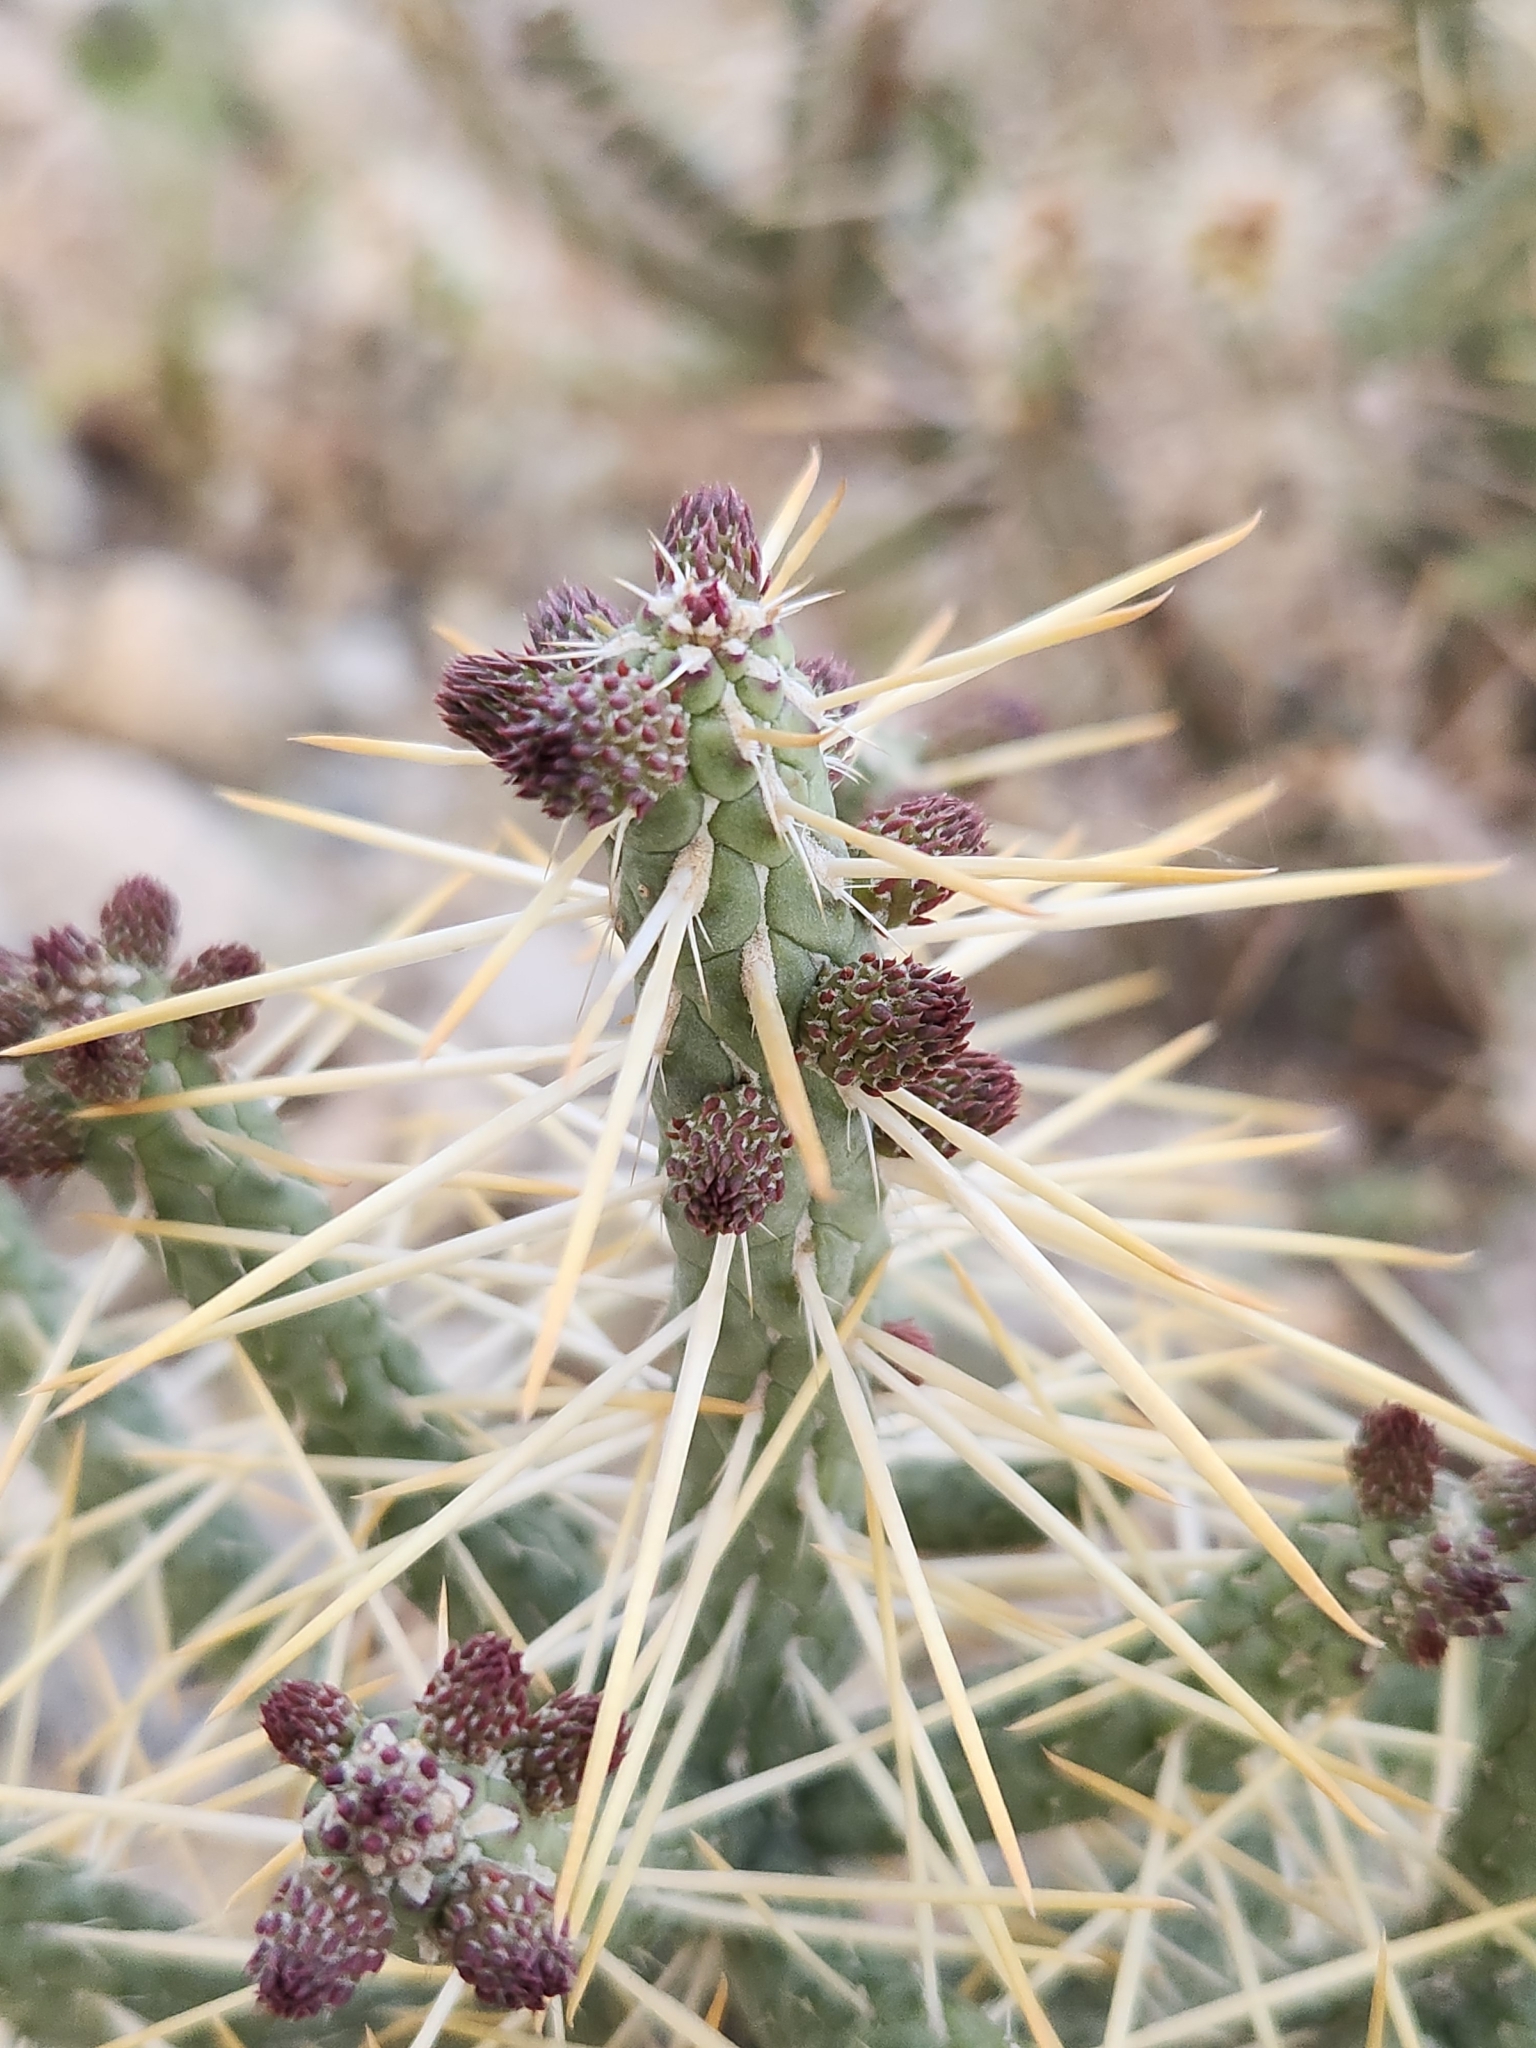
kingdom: Plantae
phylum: Tracheophyta
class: Magnoliopsida
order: Caryophyllales
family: Cactaceae
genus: Cylindropuntia
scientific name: Cylindropuntia ramosissima
